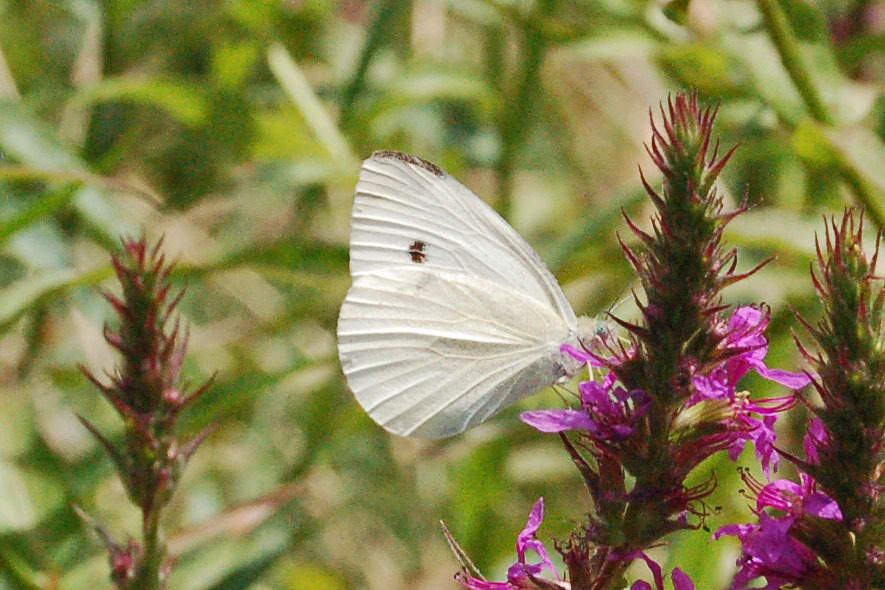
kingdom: Animalia
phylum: Arthropoda
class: Insecta
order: Lepidoptera
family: Pieridae
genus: Pieris
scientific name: Pieris rapae
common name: Small white
